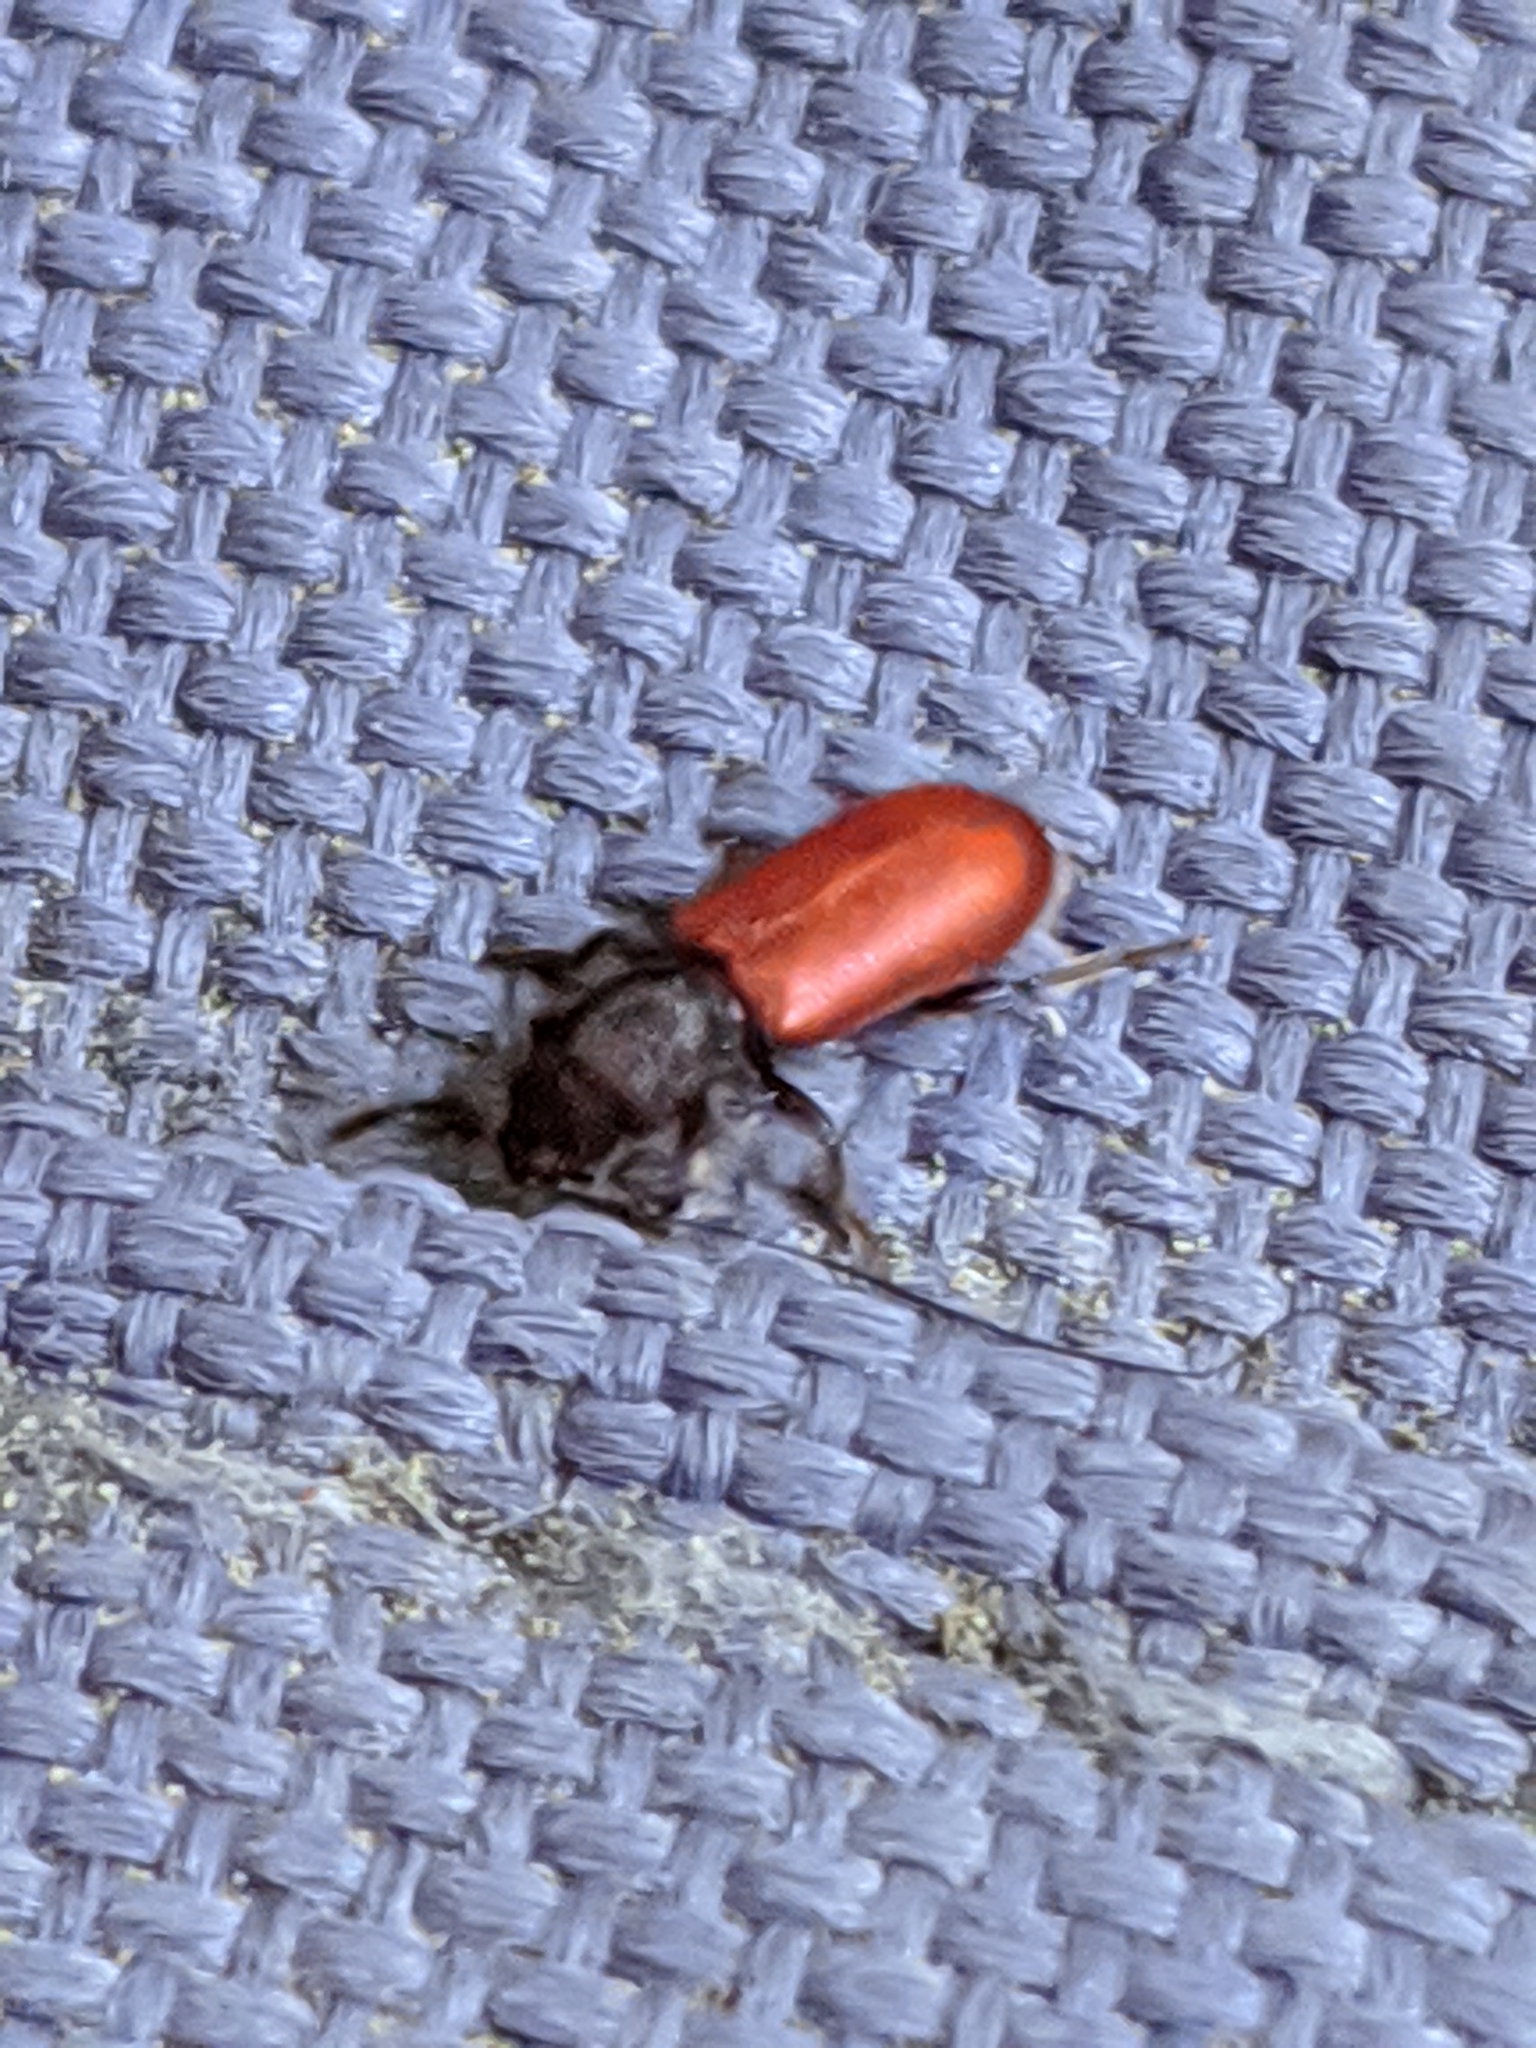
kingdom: Animalia
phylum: Arthropoda
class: Insecta
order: Coleoptera
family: Thanerocleridae
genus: Zenodosus
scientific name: Zenodosus sanguineus
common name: Blood-colored checkered beetle
